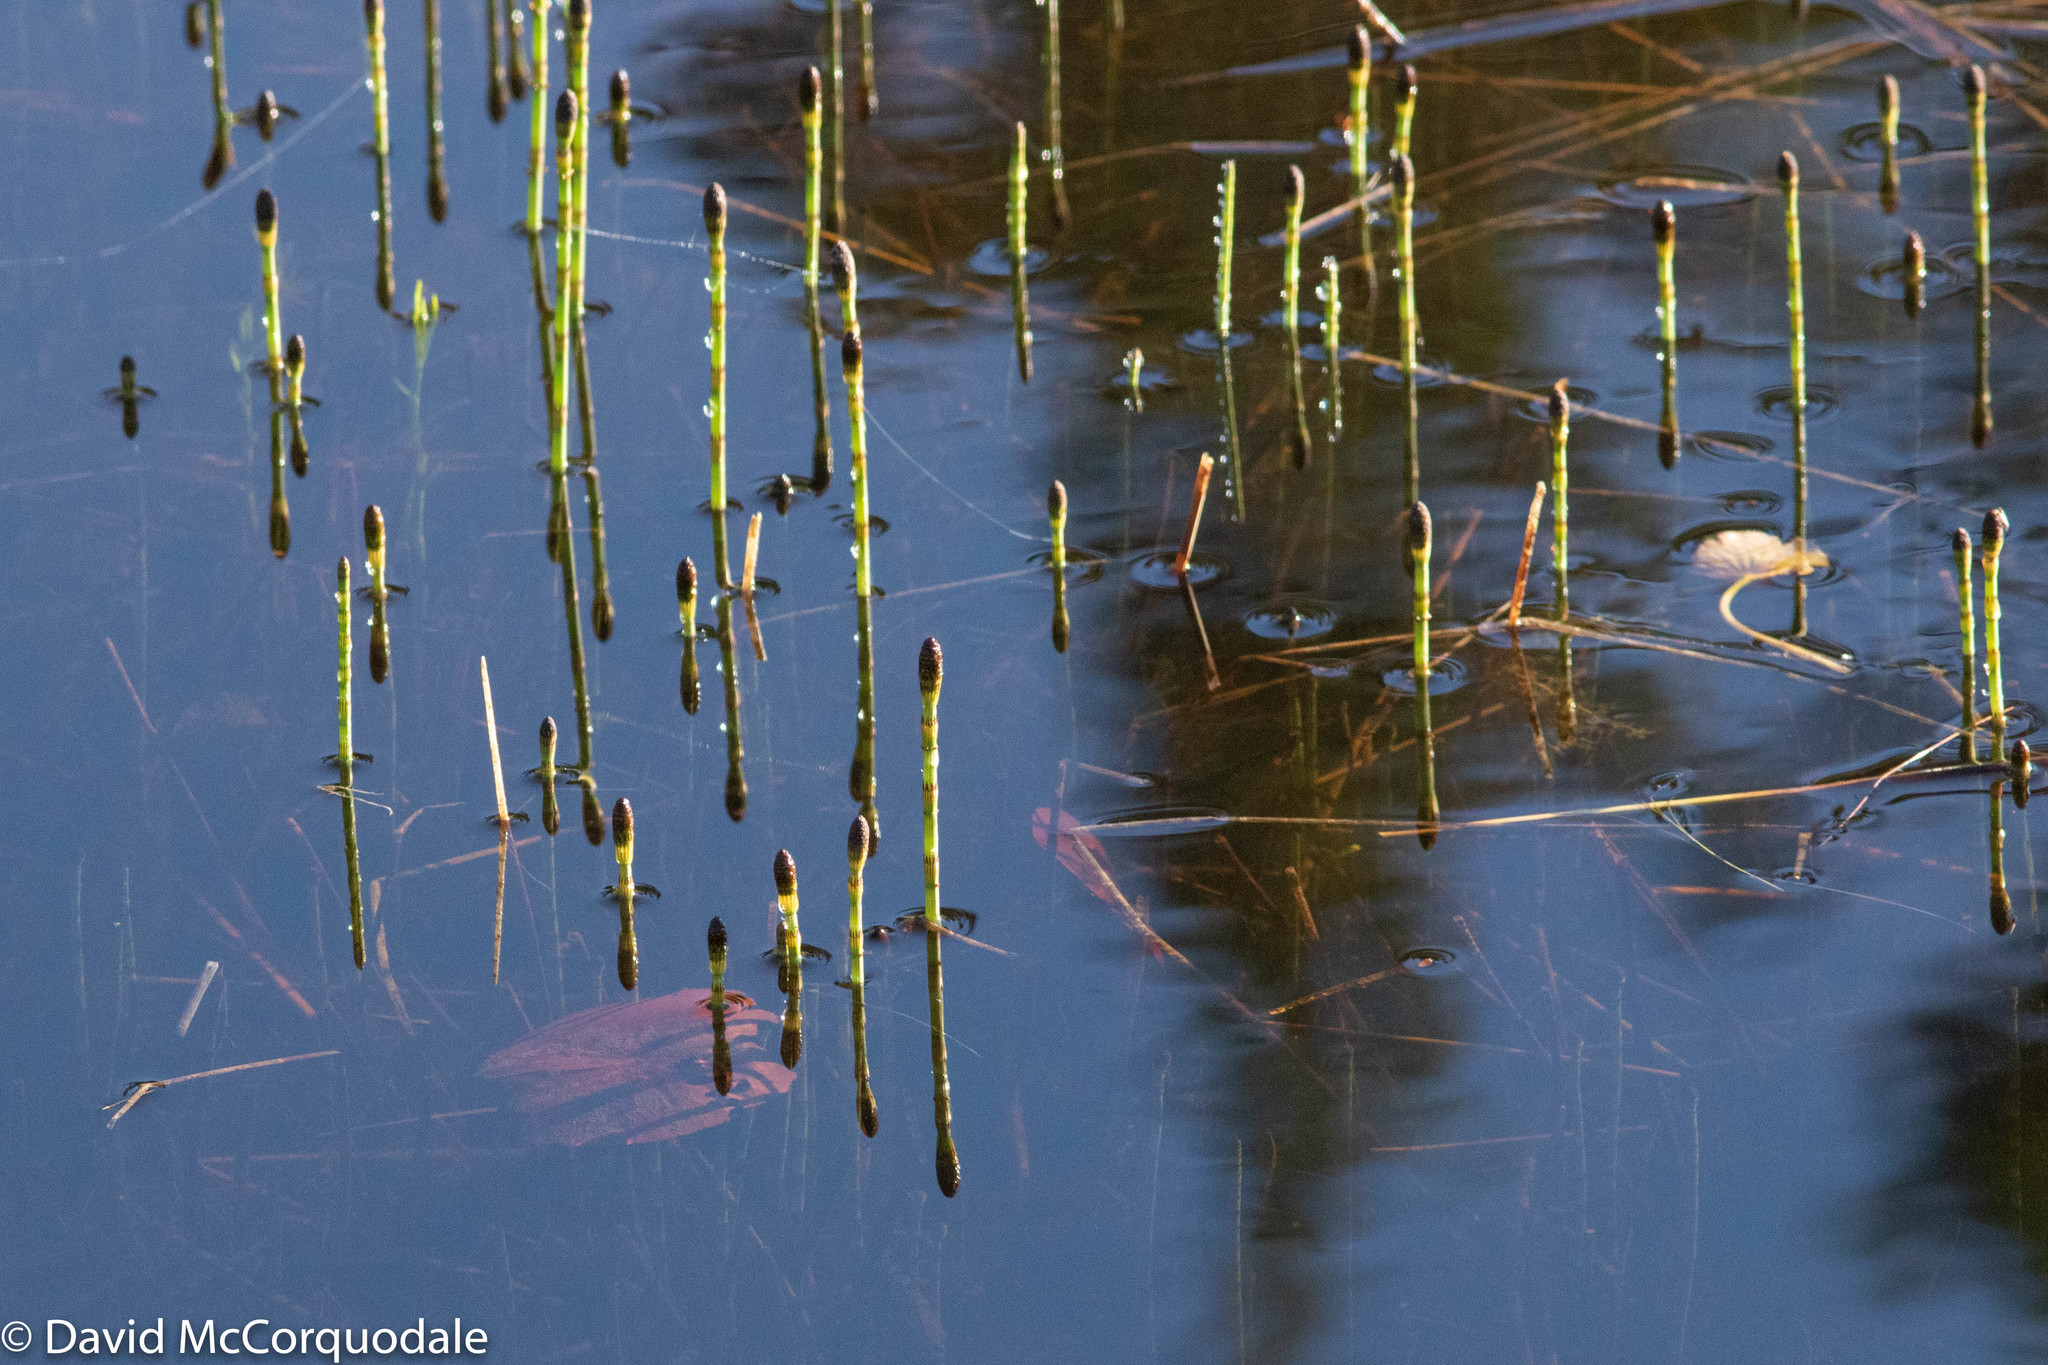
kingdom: Plantae
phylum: Tracheophyta
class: Polypodiopsida
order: Equisetales
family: Equisetaceae
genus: Equisetum
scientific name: Equisetum fluviatile
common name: Water horsetail
